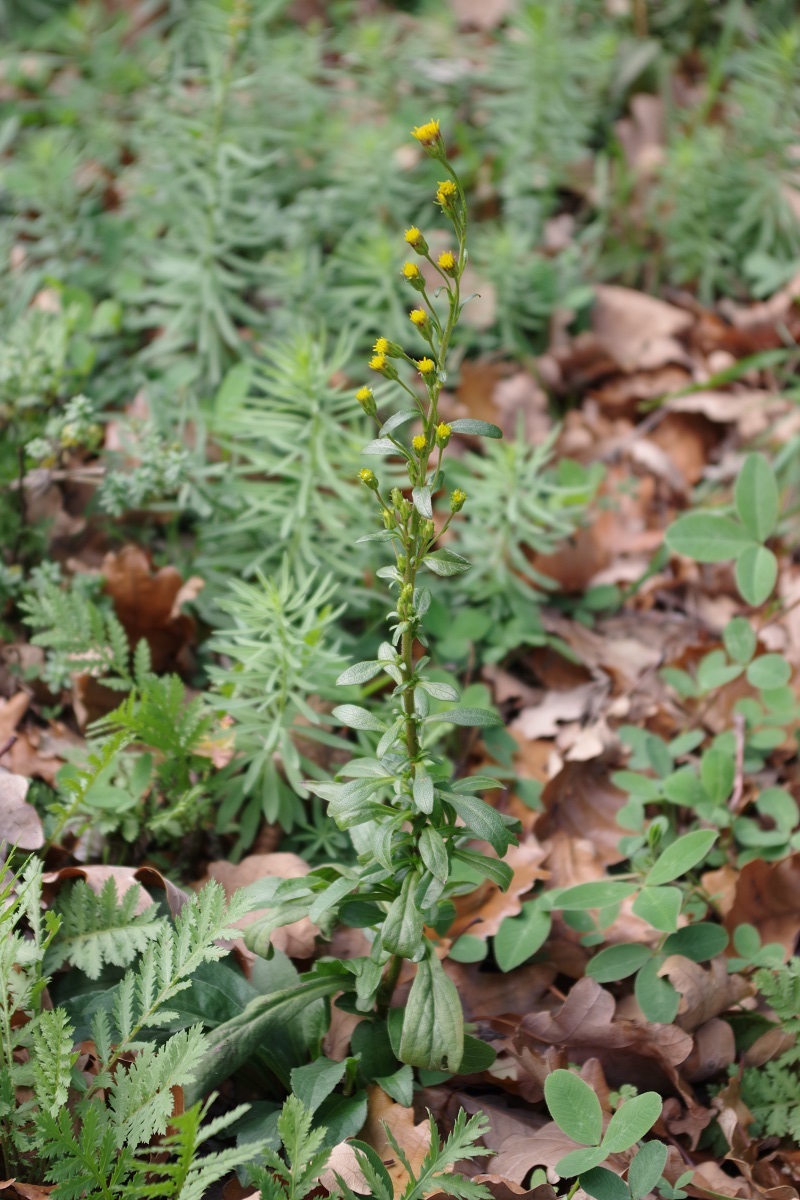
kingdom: Plantae
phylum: Tracheophyta
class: Magnoliopsida
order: Asterales
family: Asteraceae
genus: Solidago
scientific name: Solidago virgaurea
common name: Goldenrod
